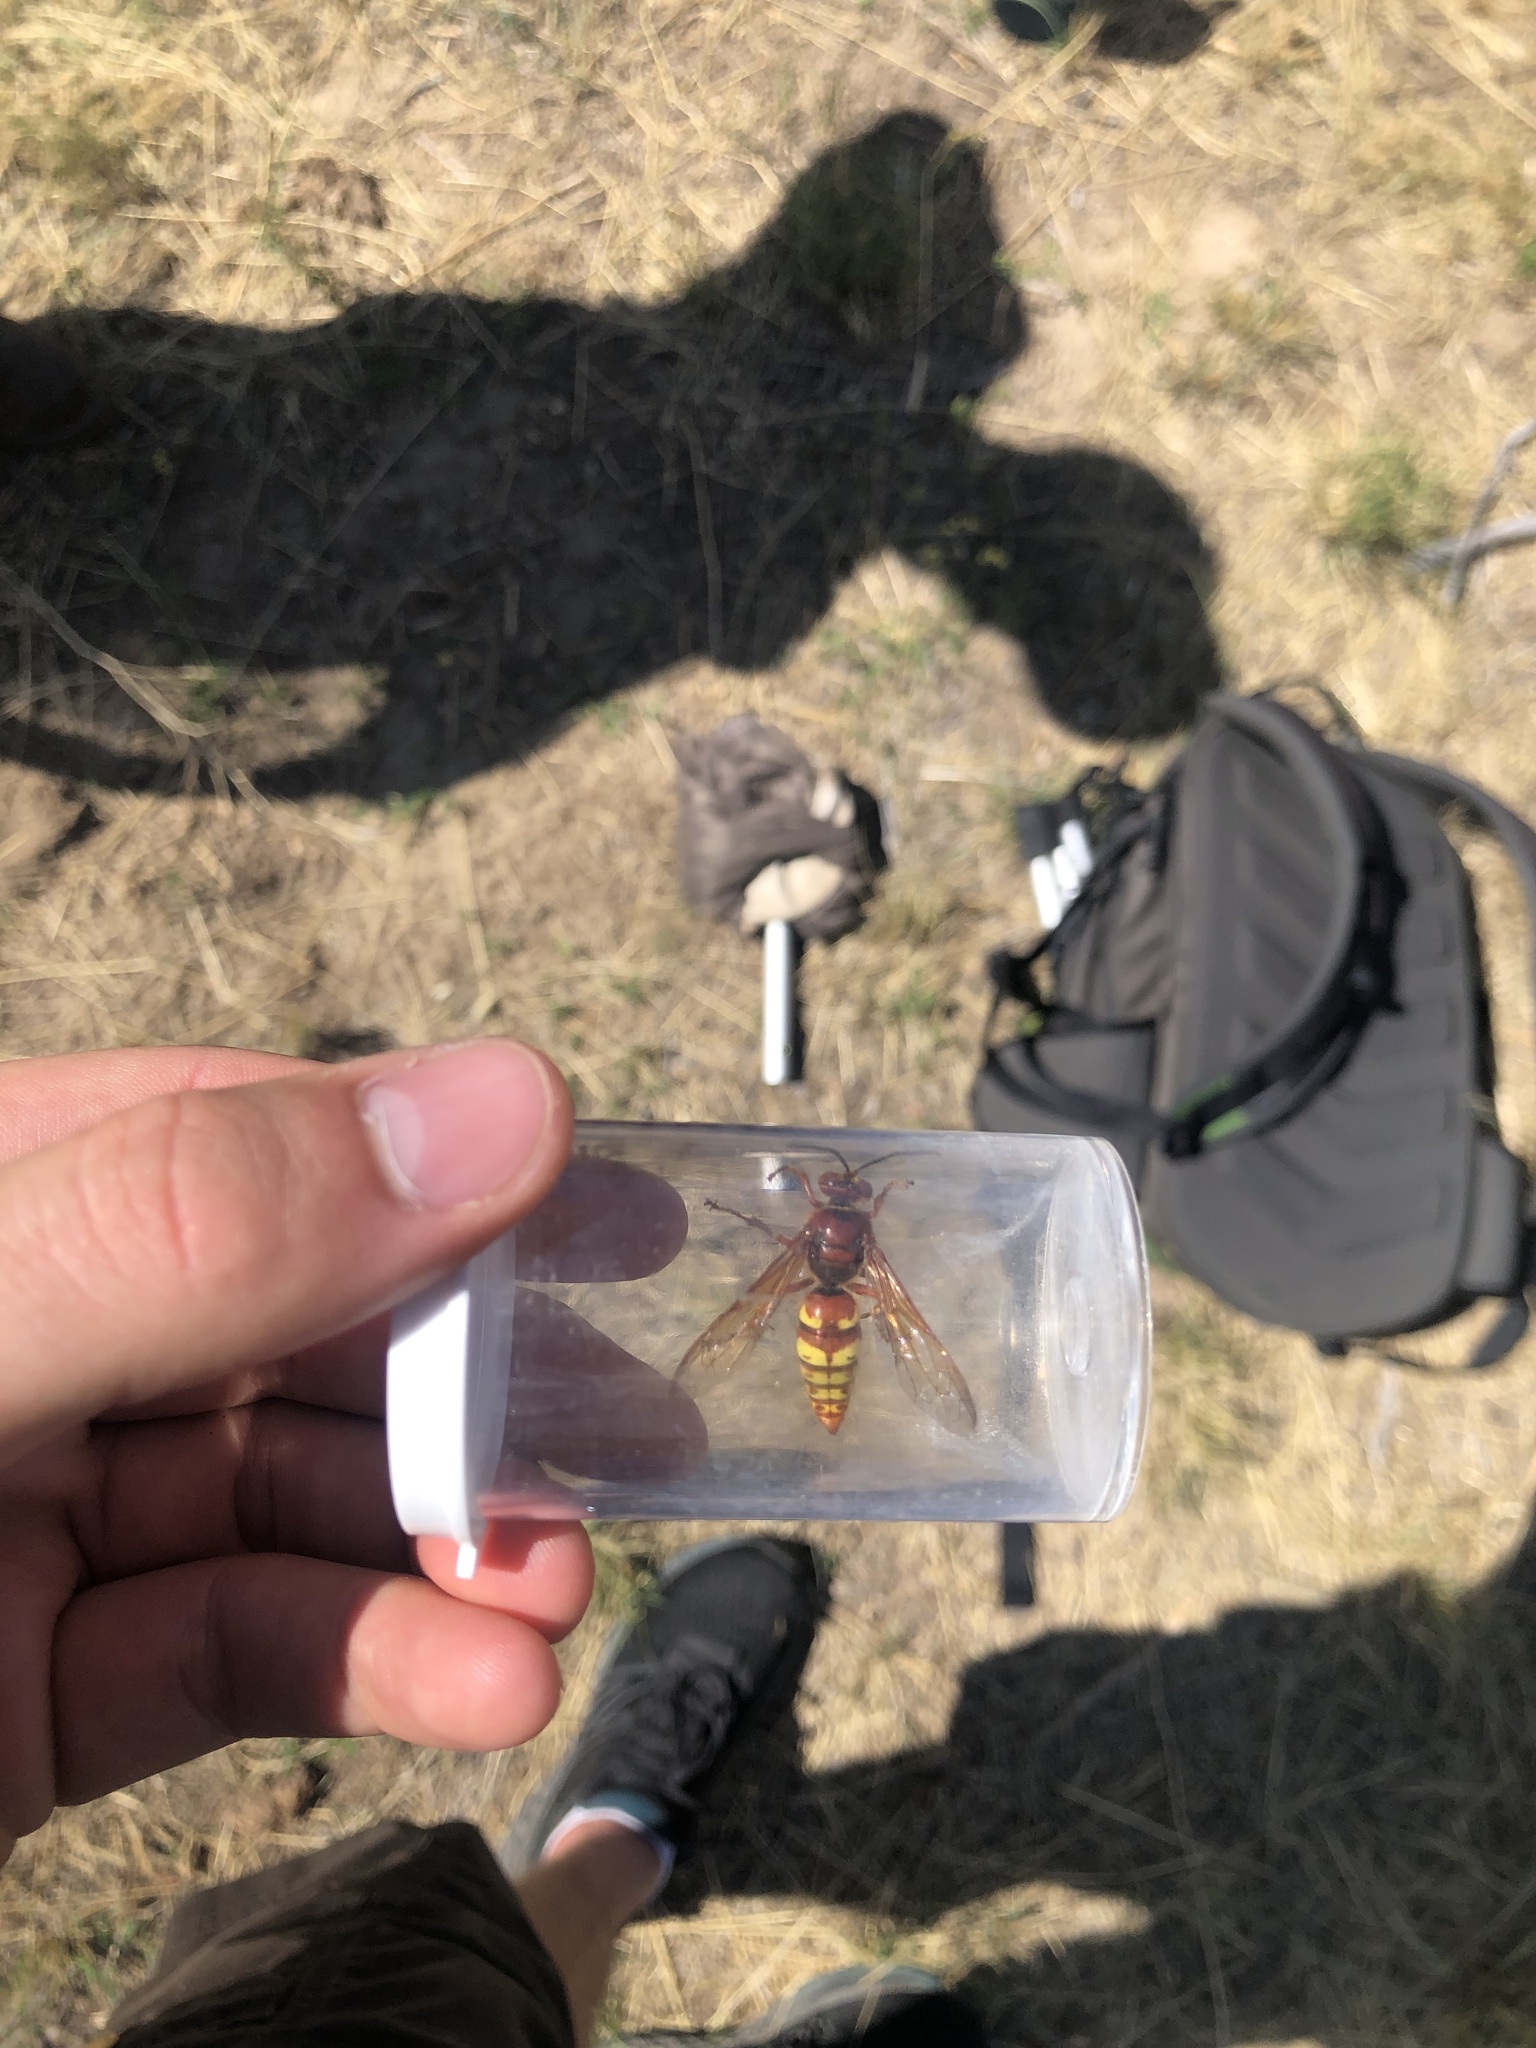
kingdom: Animalia
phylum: Arthropoda
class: Insecta
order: Hymenoptera
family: Crabronidae
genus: Sphecius
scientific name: Sphecius grandis
